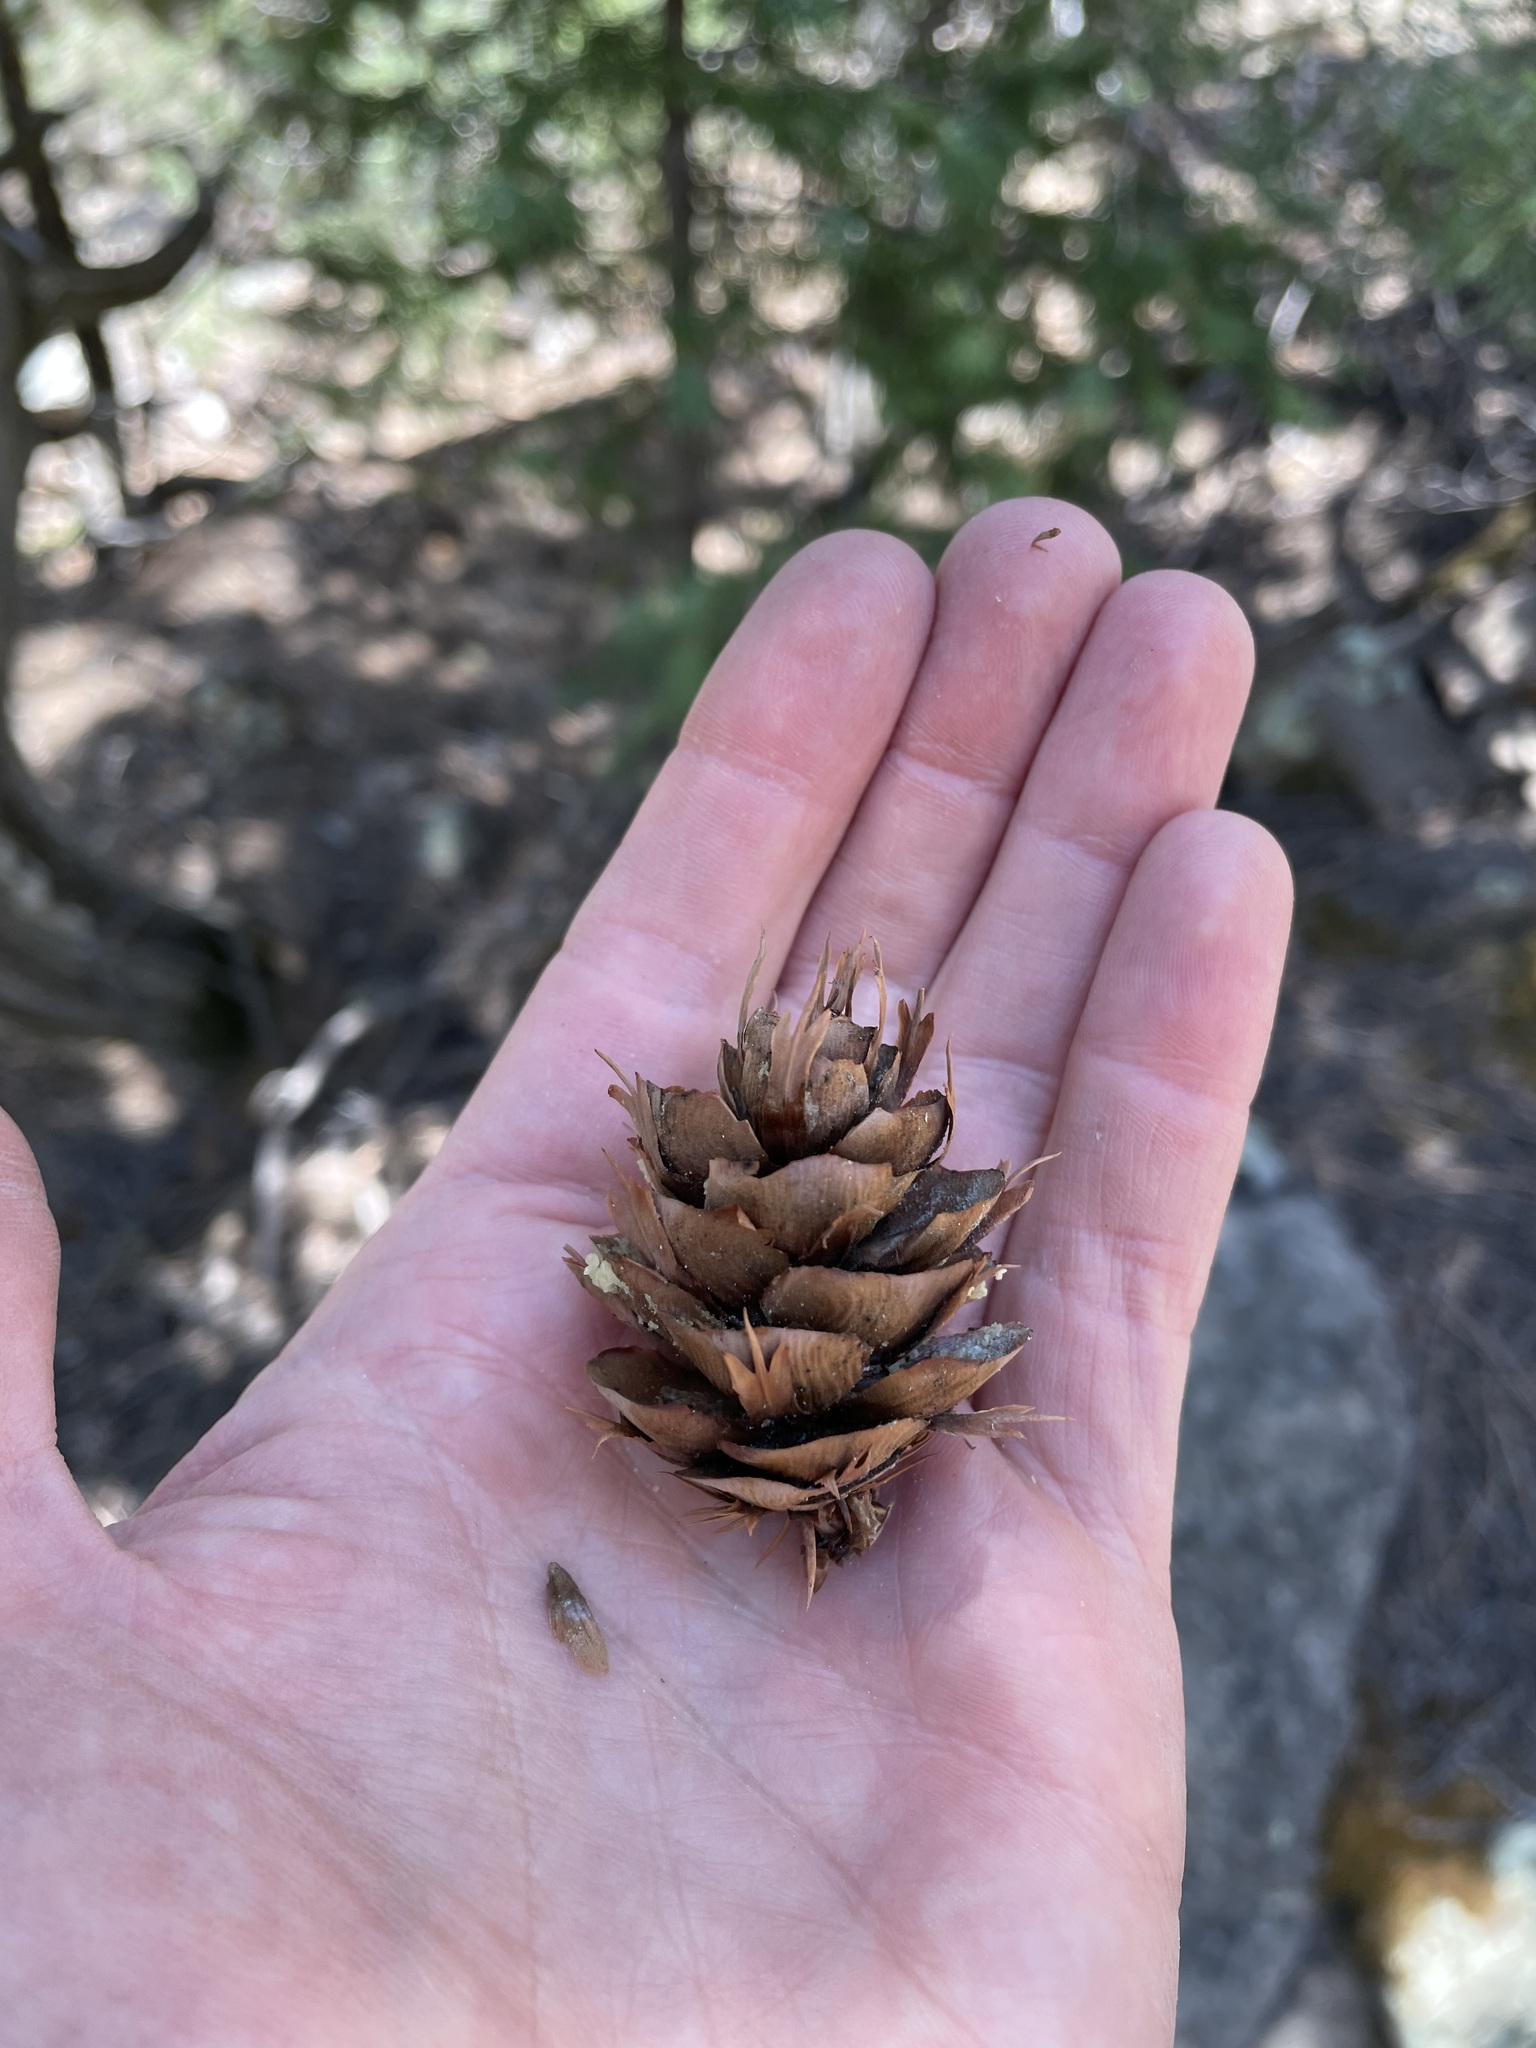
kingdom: Plantae
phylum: Tracheophyta
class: Pinopsida
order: Pinales
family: Pinaceae
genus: Pseudotsuga
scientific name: Pseudotsuga menziesii
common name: Douglas fir
